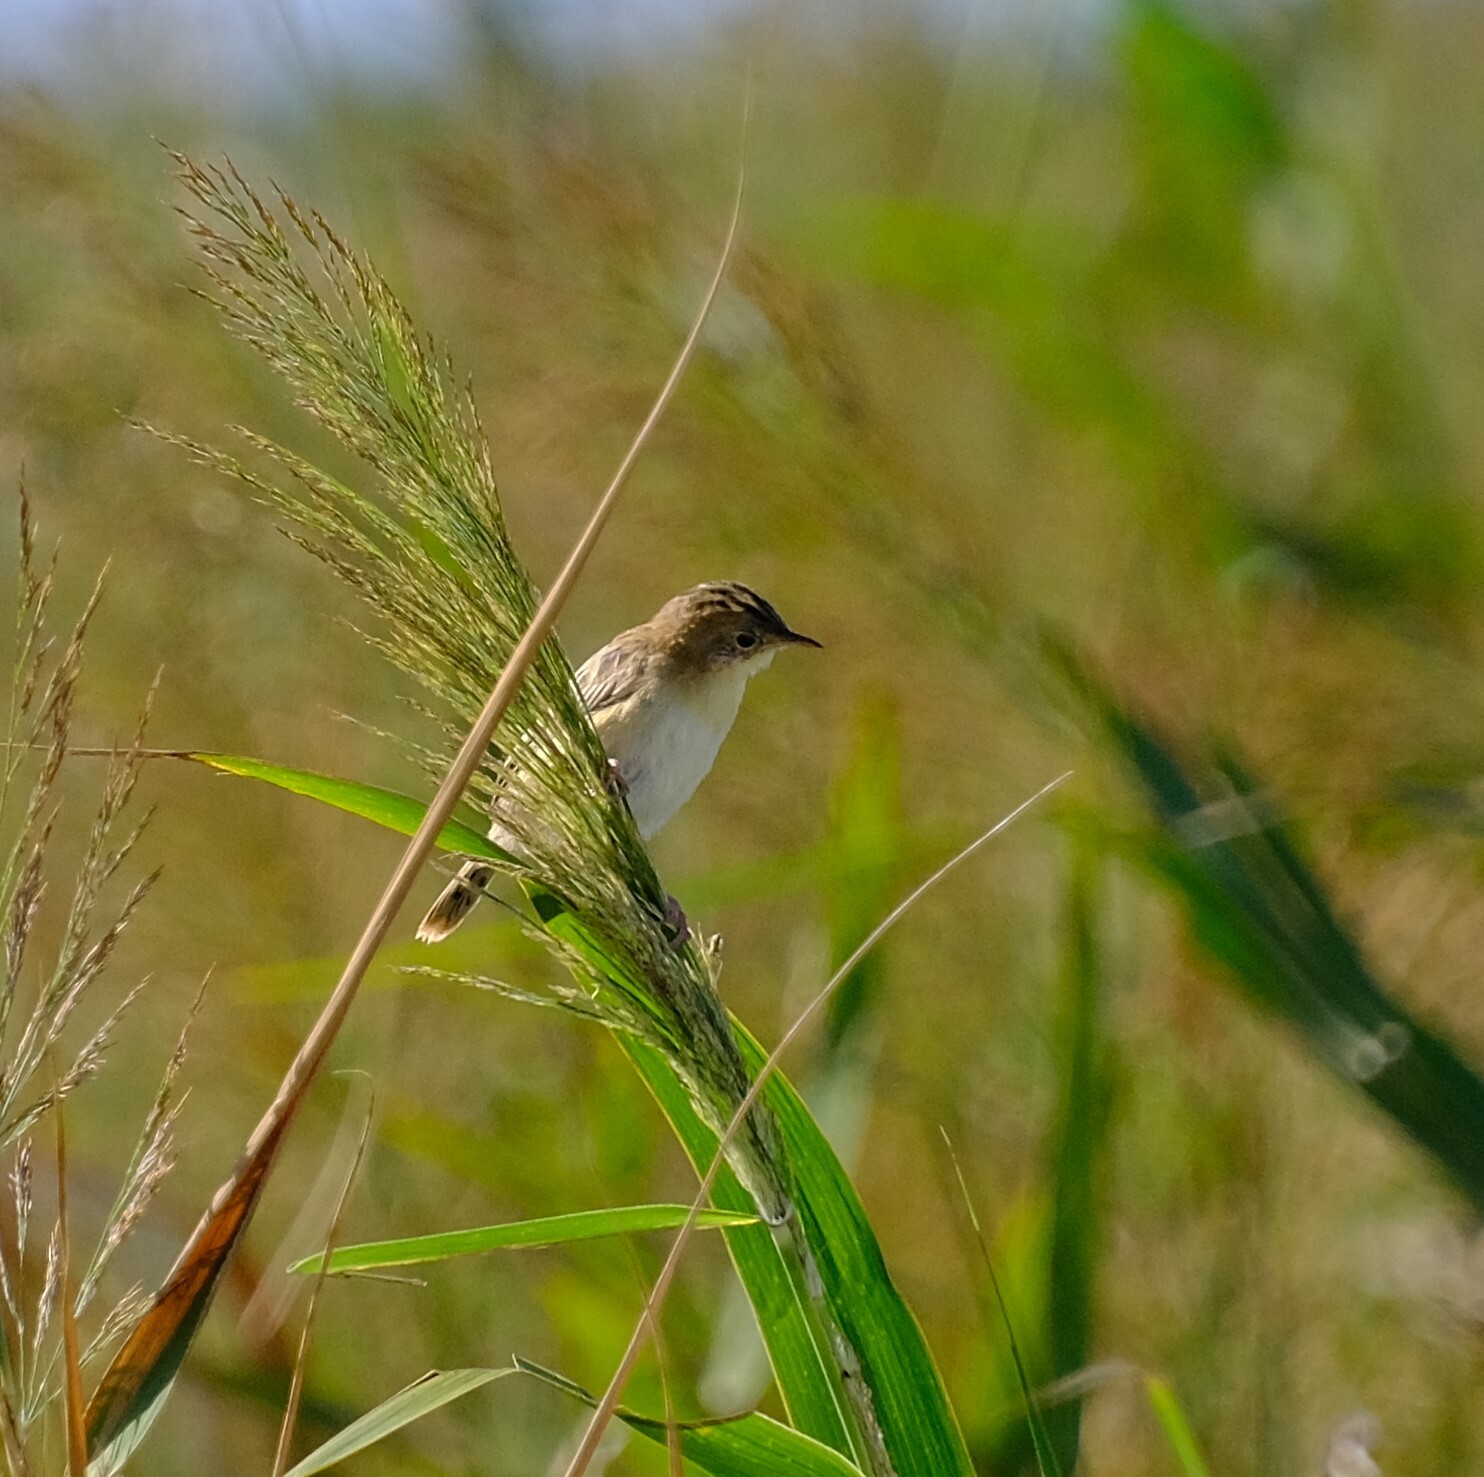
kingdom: Animalia
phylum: Chordata
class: Aves
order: Passeriformes
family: Cisticolidae
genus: Cisticola
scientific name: Cisticola exilis
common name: Golden-headed cisticola
